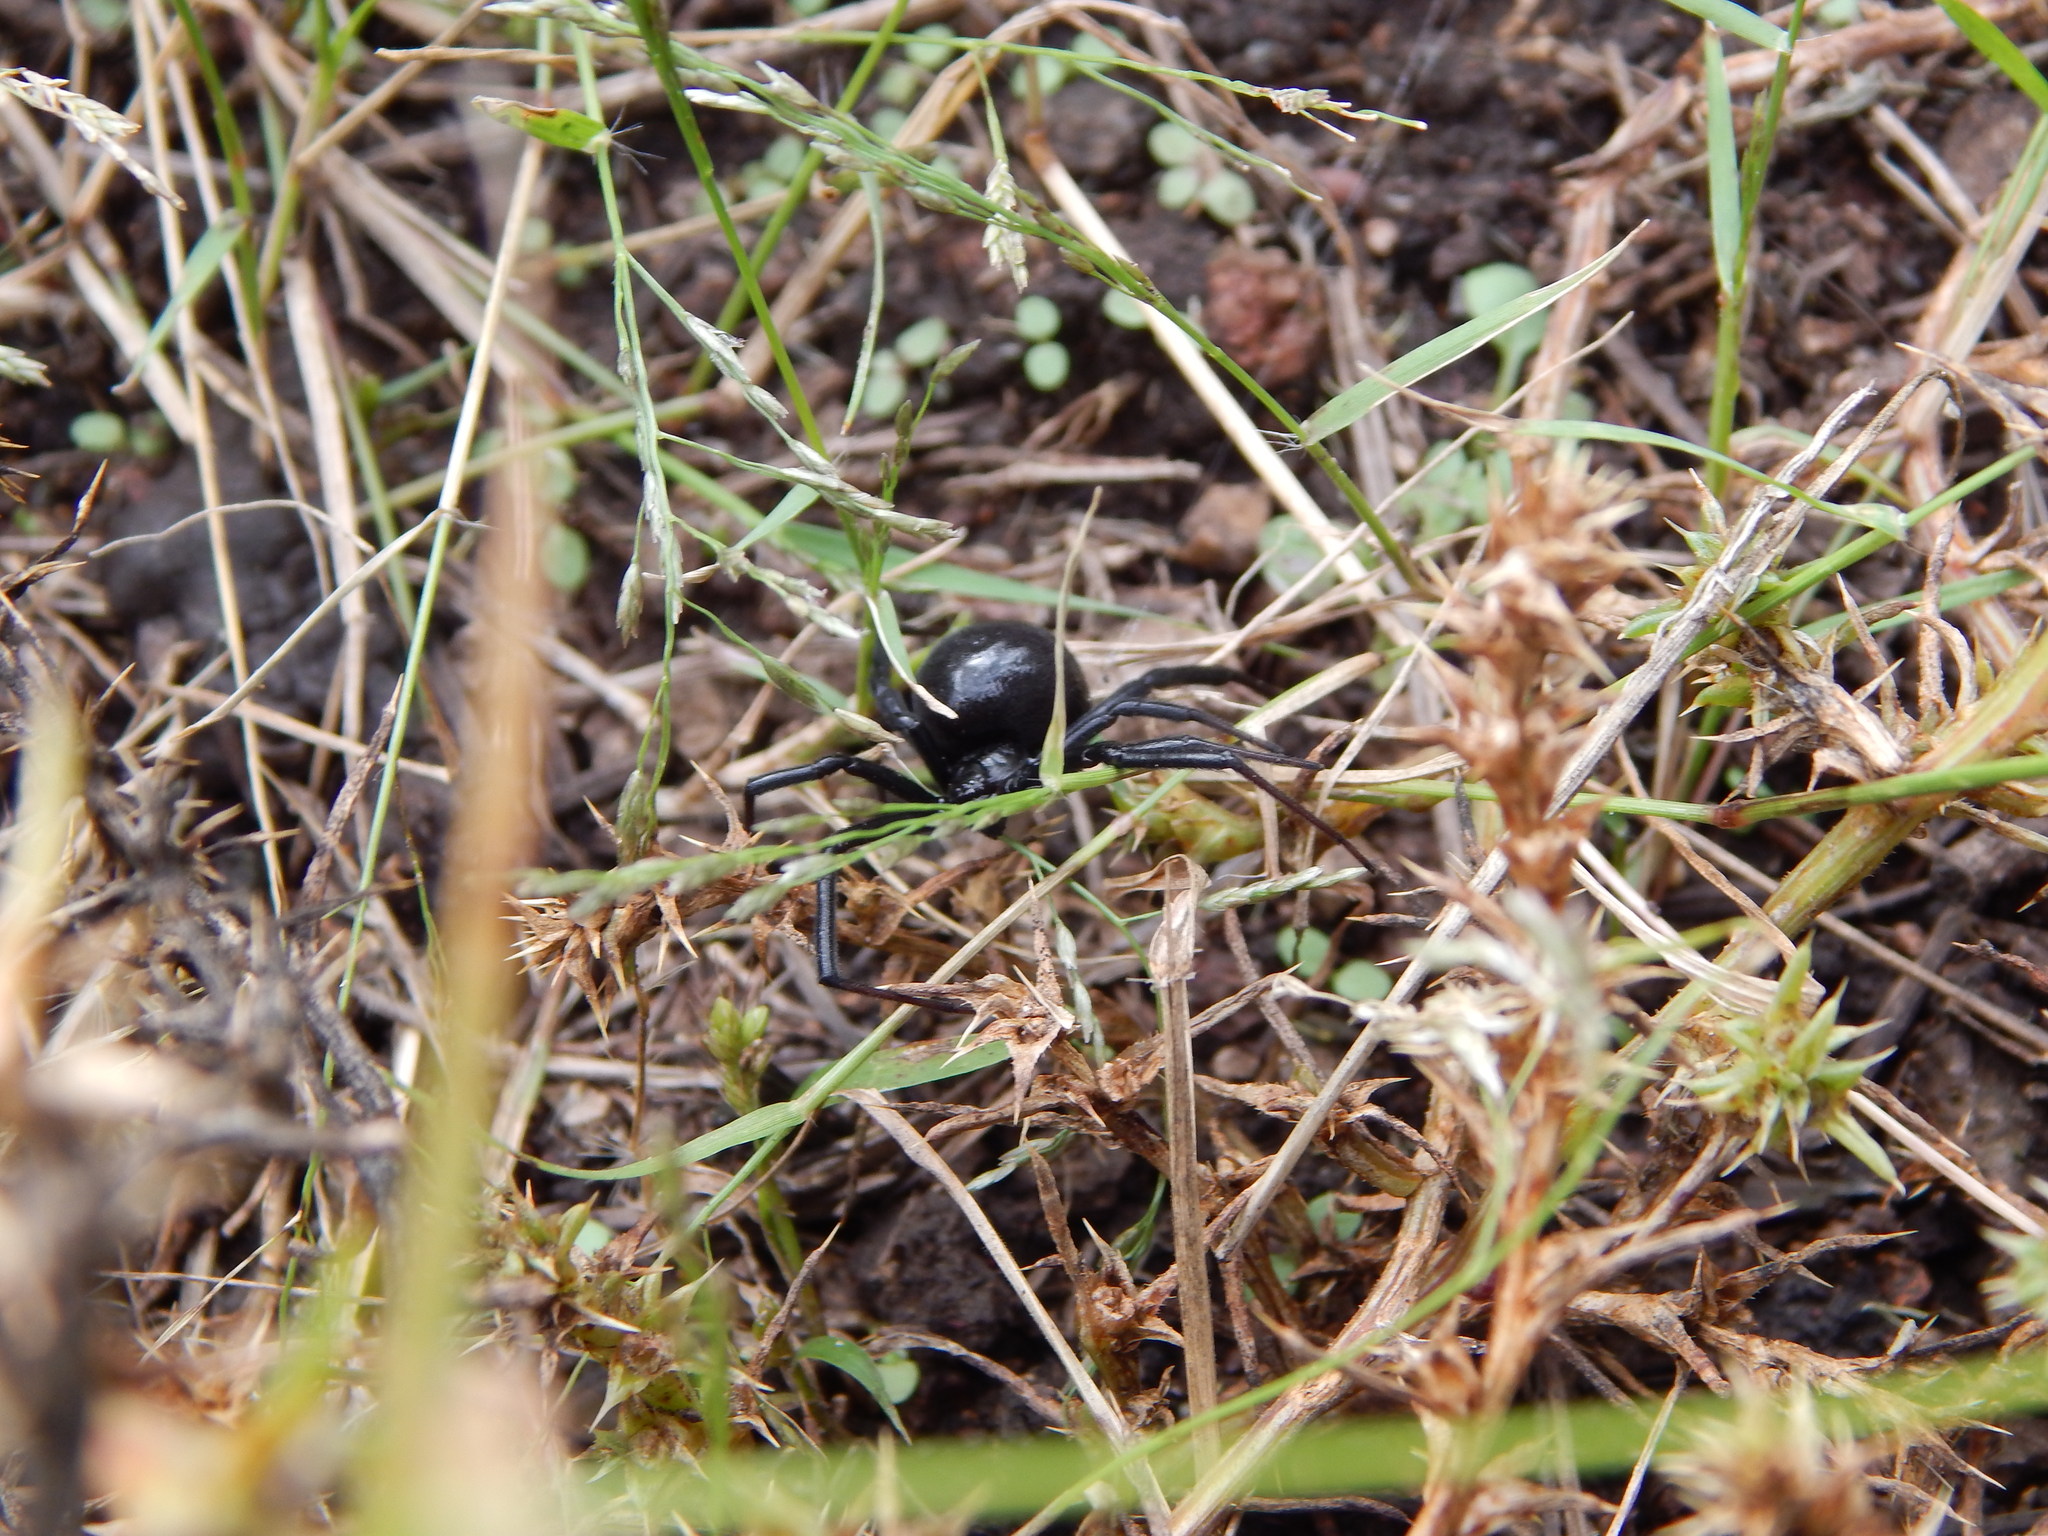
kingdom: Animalia
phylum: Arthropoda
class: Arachnida
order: Araneae
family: Theridiidae
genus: Latrodectus
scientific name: Latrodectus hesperus
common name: Western black widow
